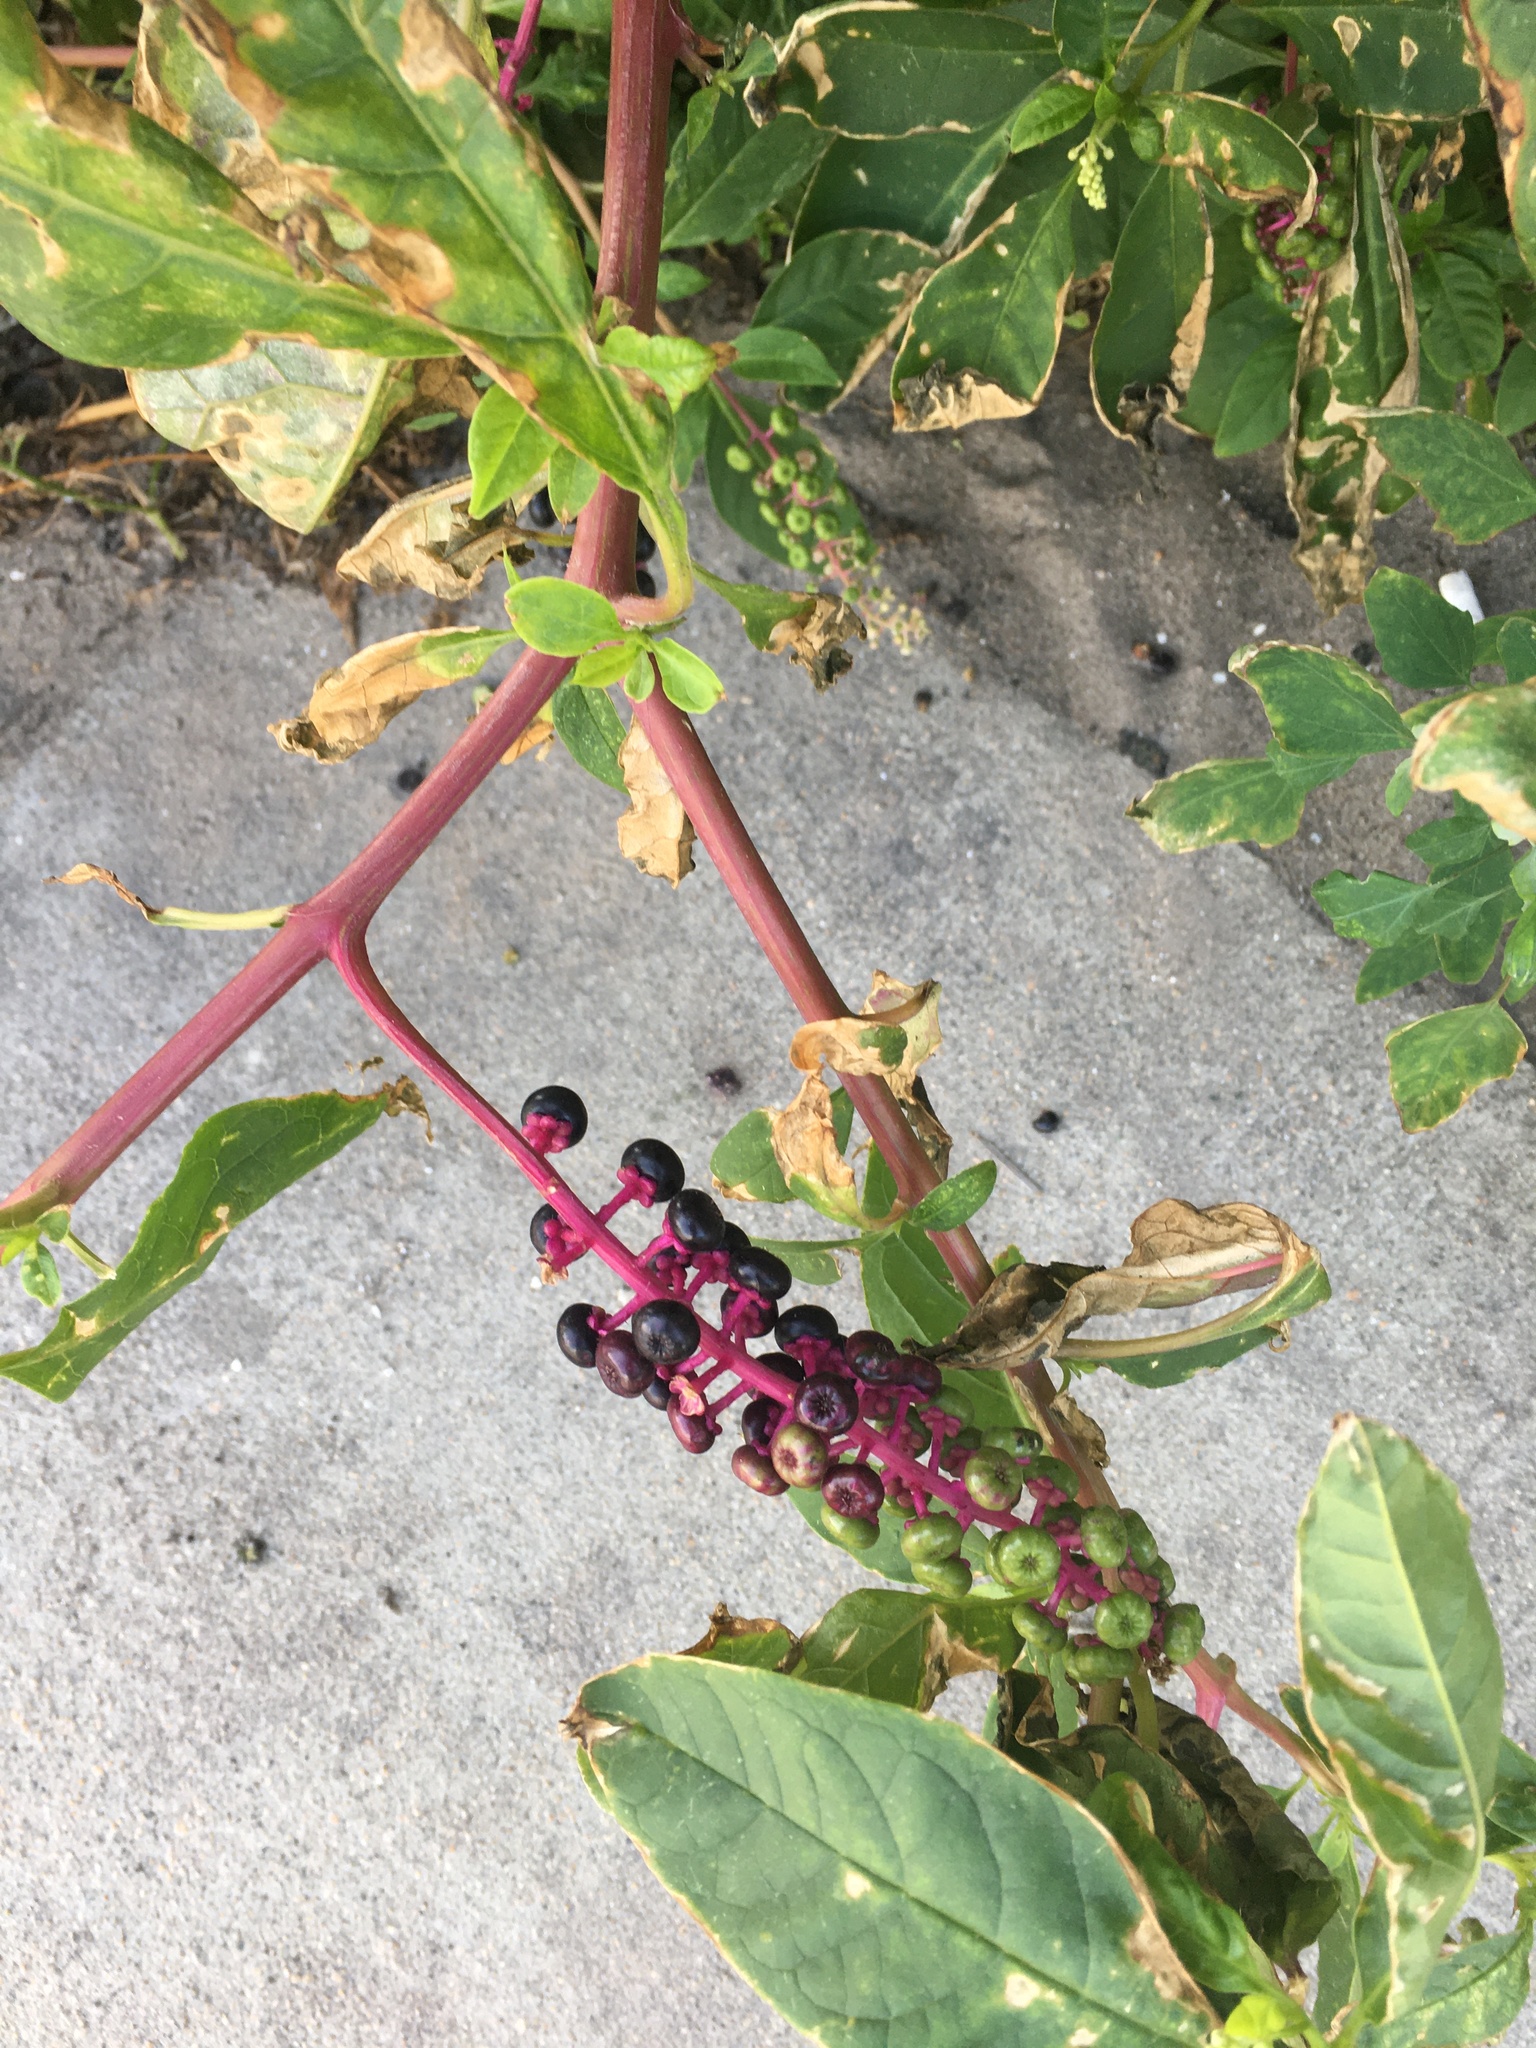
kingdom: Plantae
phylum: Tracheophyta
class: Magnoliopsida
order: Caryophyllales
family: Phytolaccaceae
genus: Phytolacca
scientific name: Phytolacca americana
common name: American pokeweed
